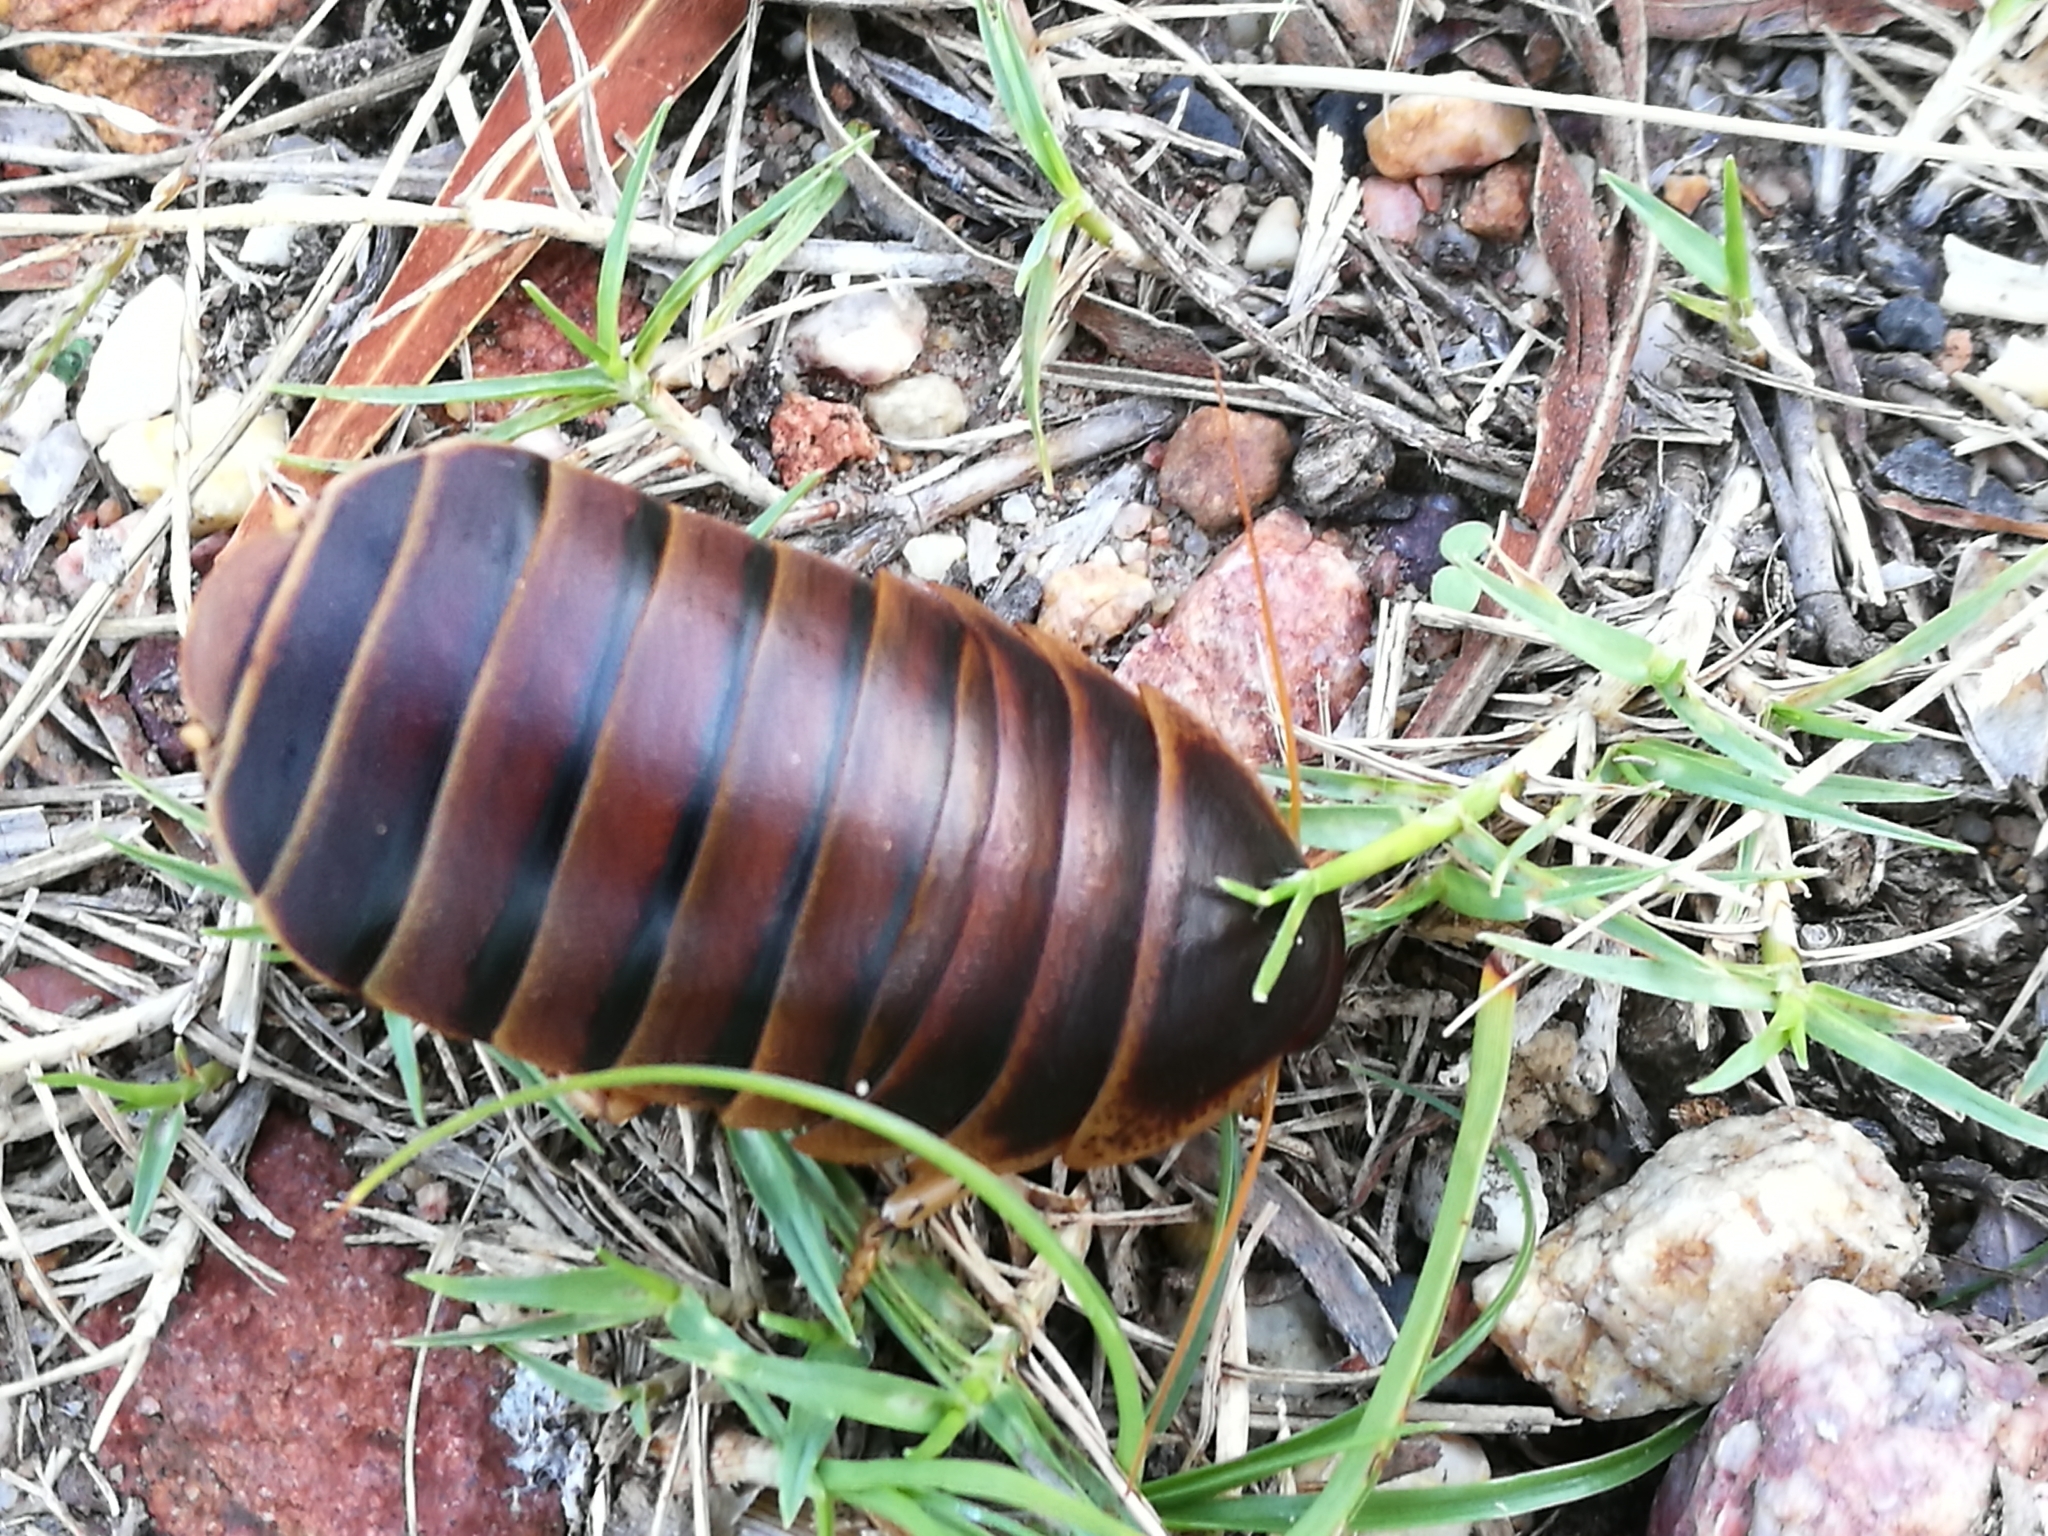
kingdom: Animalia
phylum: Arthropoda
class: Insecta
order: Blattodea
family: Blaberidae
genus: Aptera
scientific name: Aptera fusca
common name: Cape mountain cockroach
